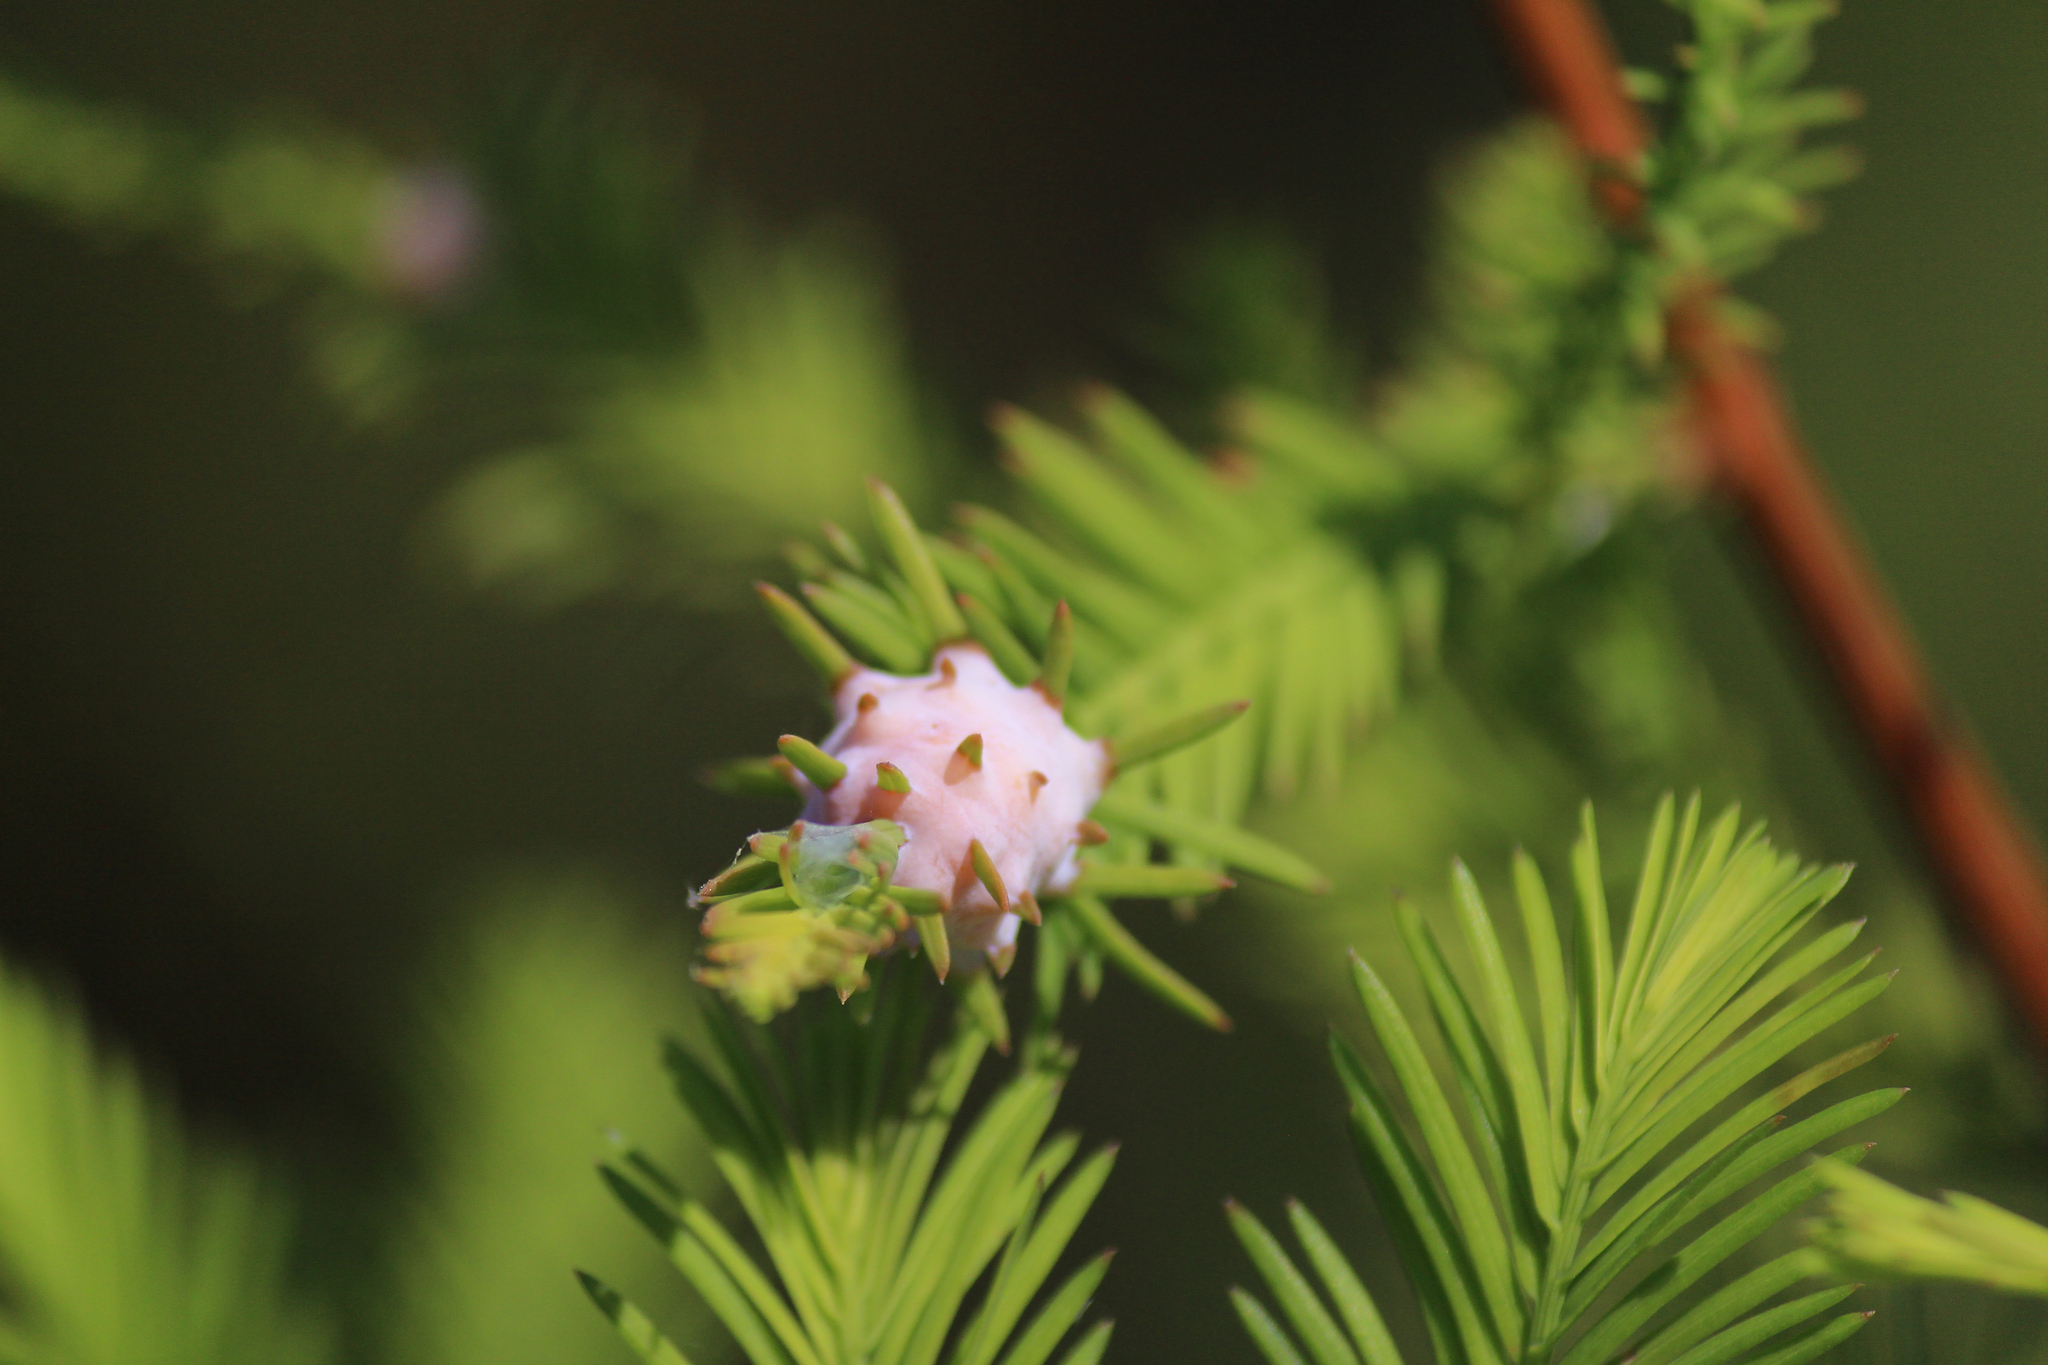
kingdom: Animalia
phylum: Arthropoda
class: Insecta
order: Diptera
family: Cecidomyiidae
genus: Taxodiomyia
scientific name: Taxodiomyia cupressiananassa
